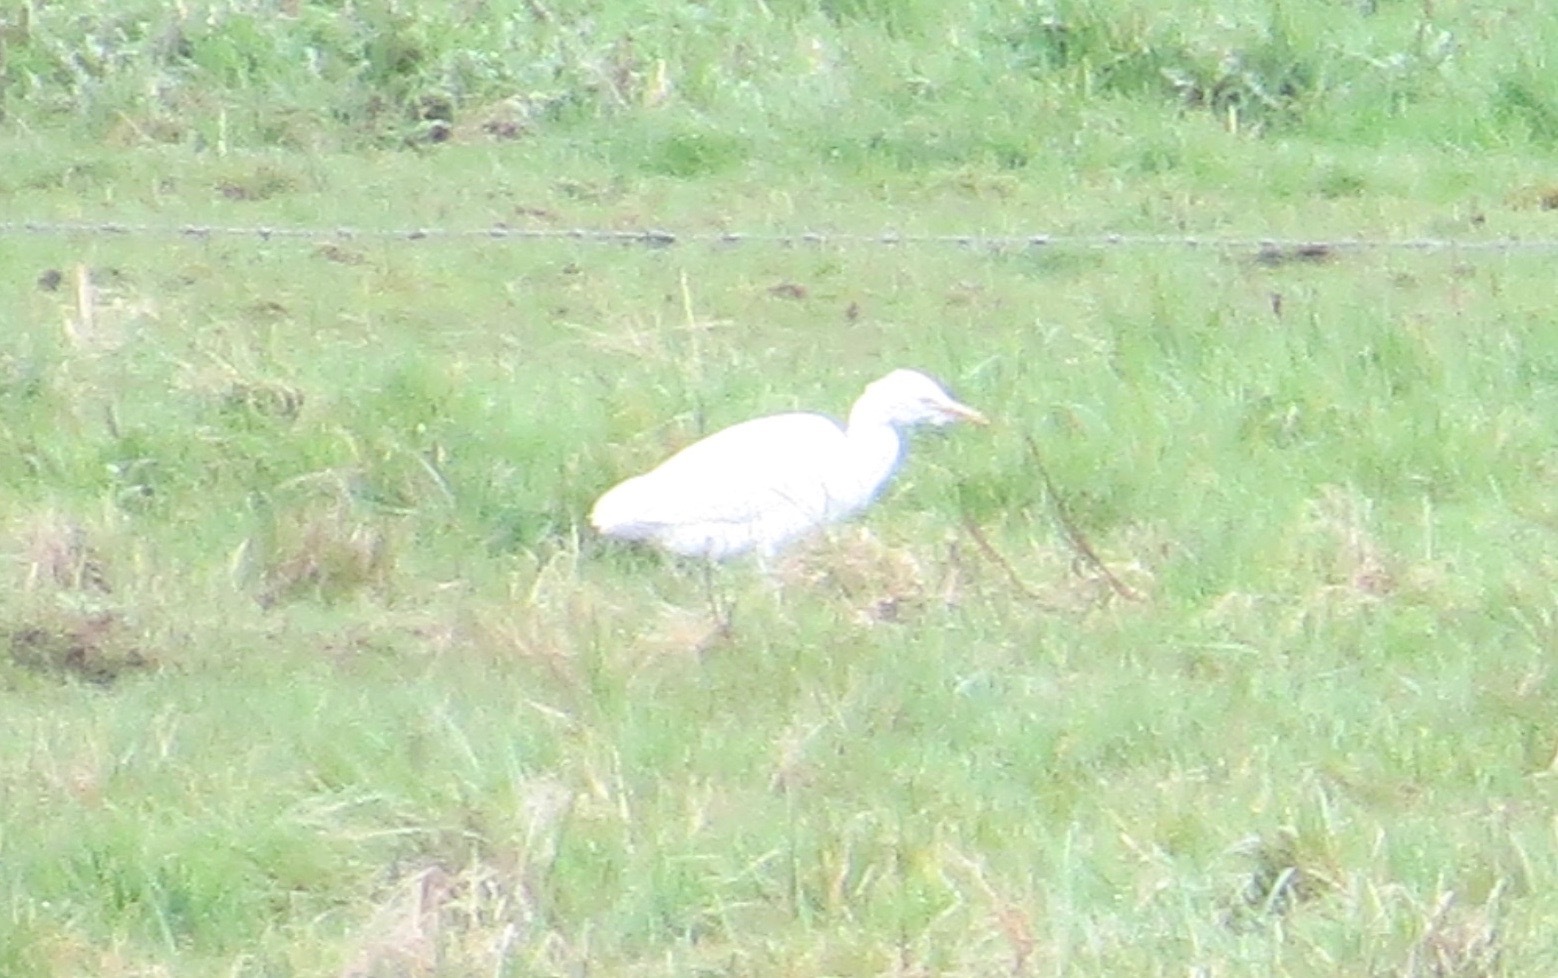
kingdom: Animalia
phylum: Chordata
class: Aves
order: Pelecaniformes
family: Ardeidae
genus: Bubulcus
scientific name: Bubulcus ibis
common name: Cattle egret
